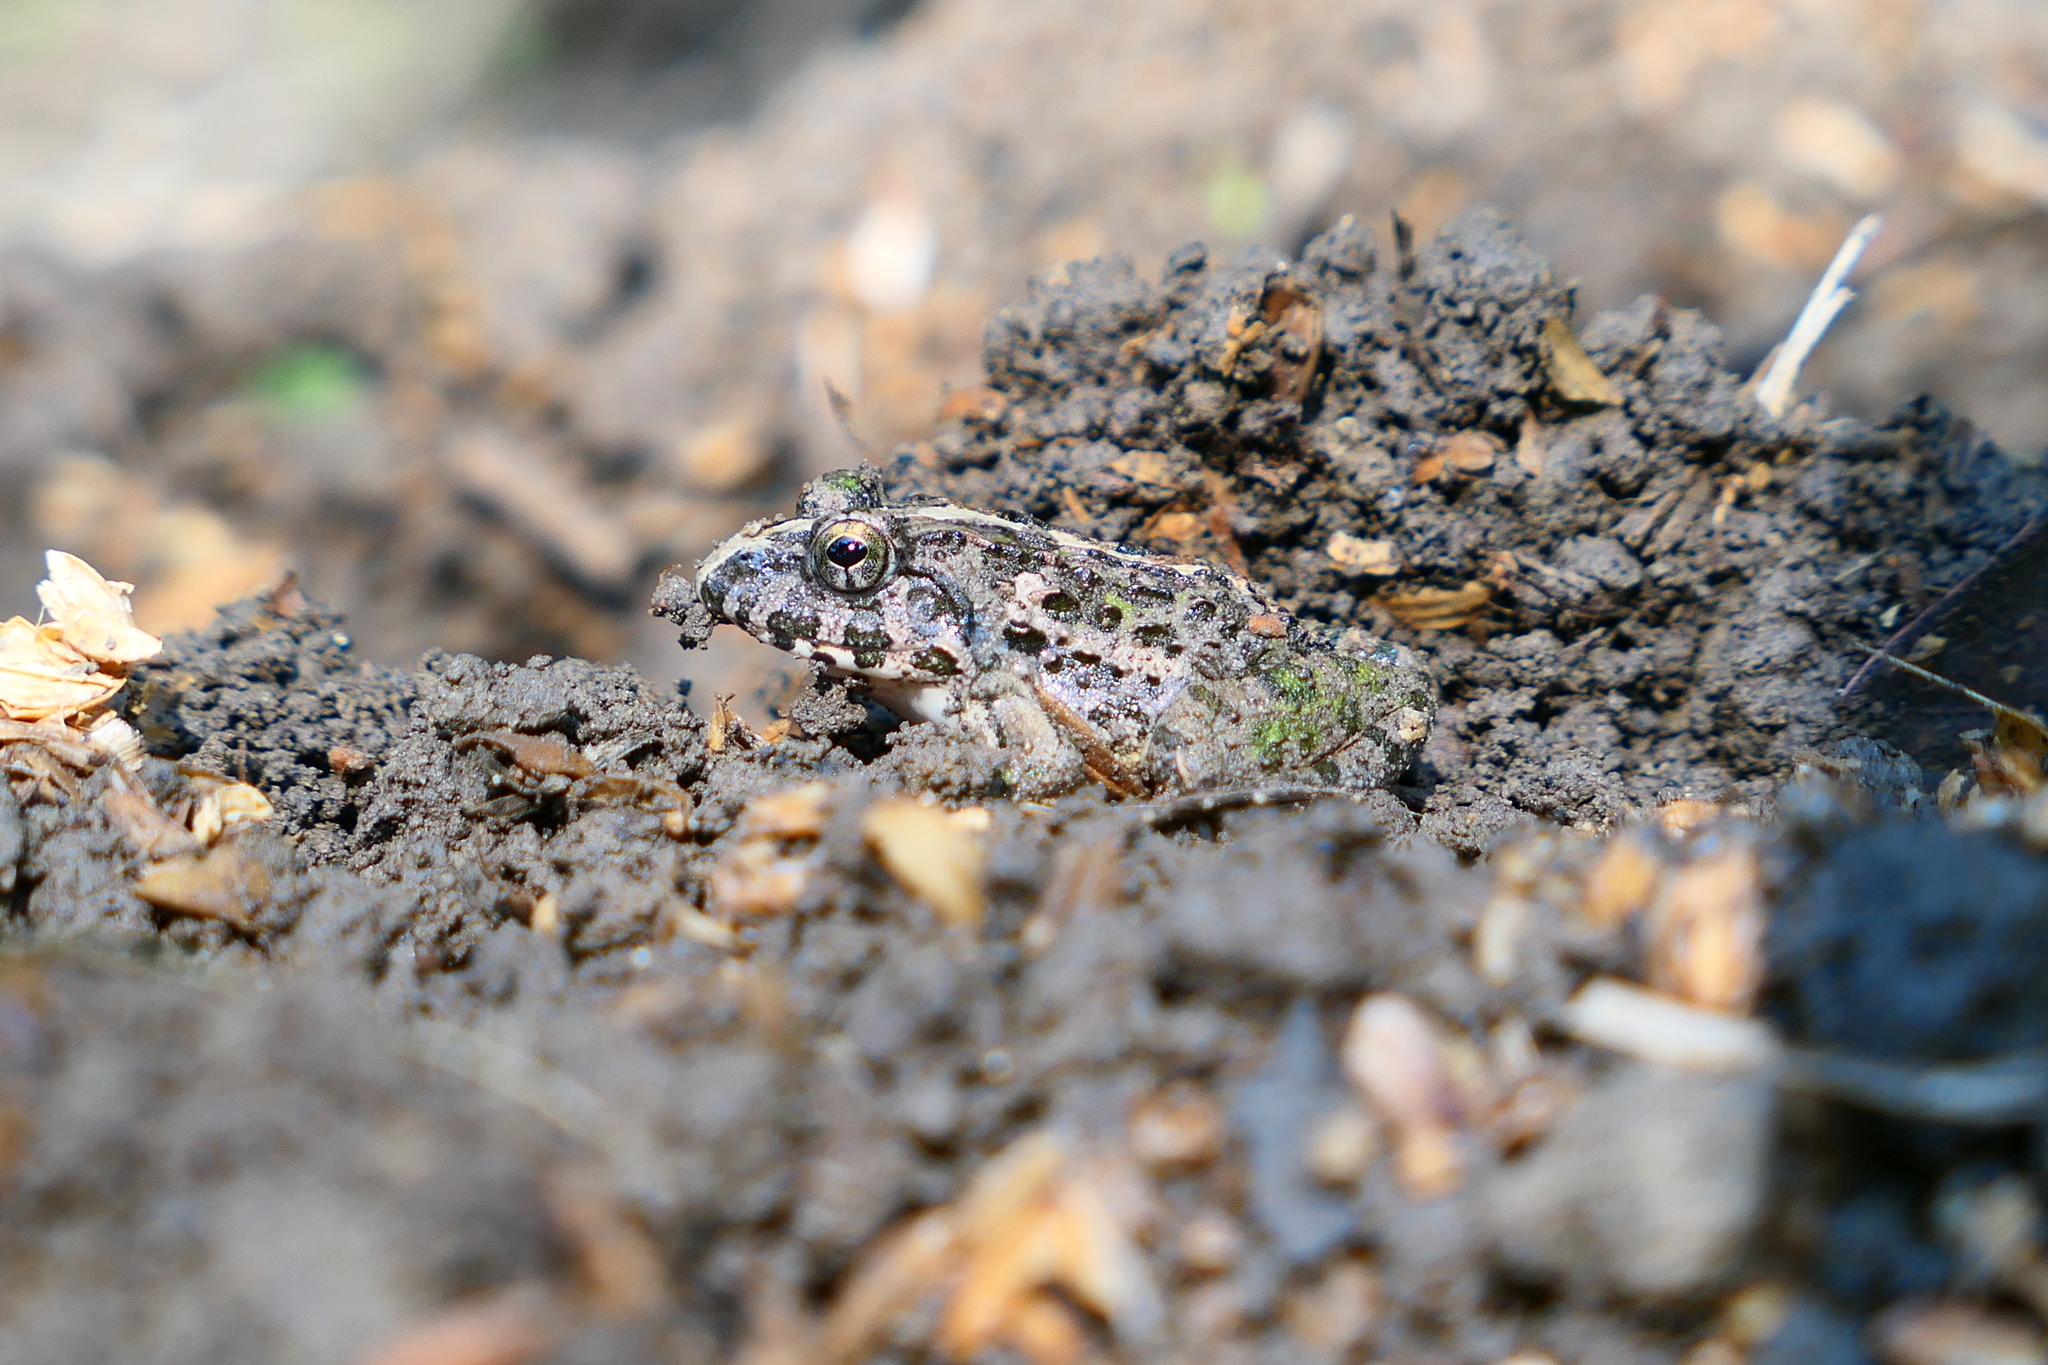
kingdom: Animalia
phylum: Chordata
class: Amphibia
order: Anura
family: Dicroglossidae
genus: Fejervarya
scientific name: Fejervarya limnocharis
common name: Asian grass frog/common pond frog/field frog/grass frog/indian rice frog
